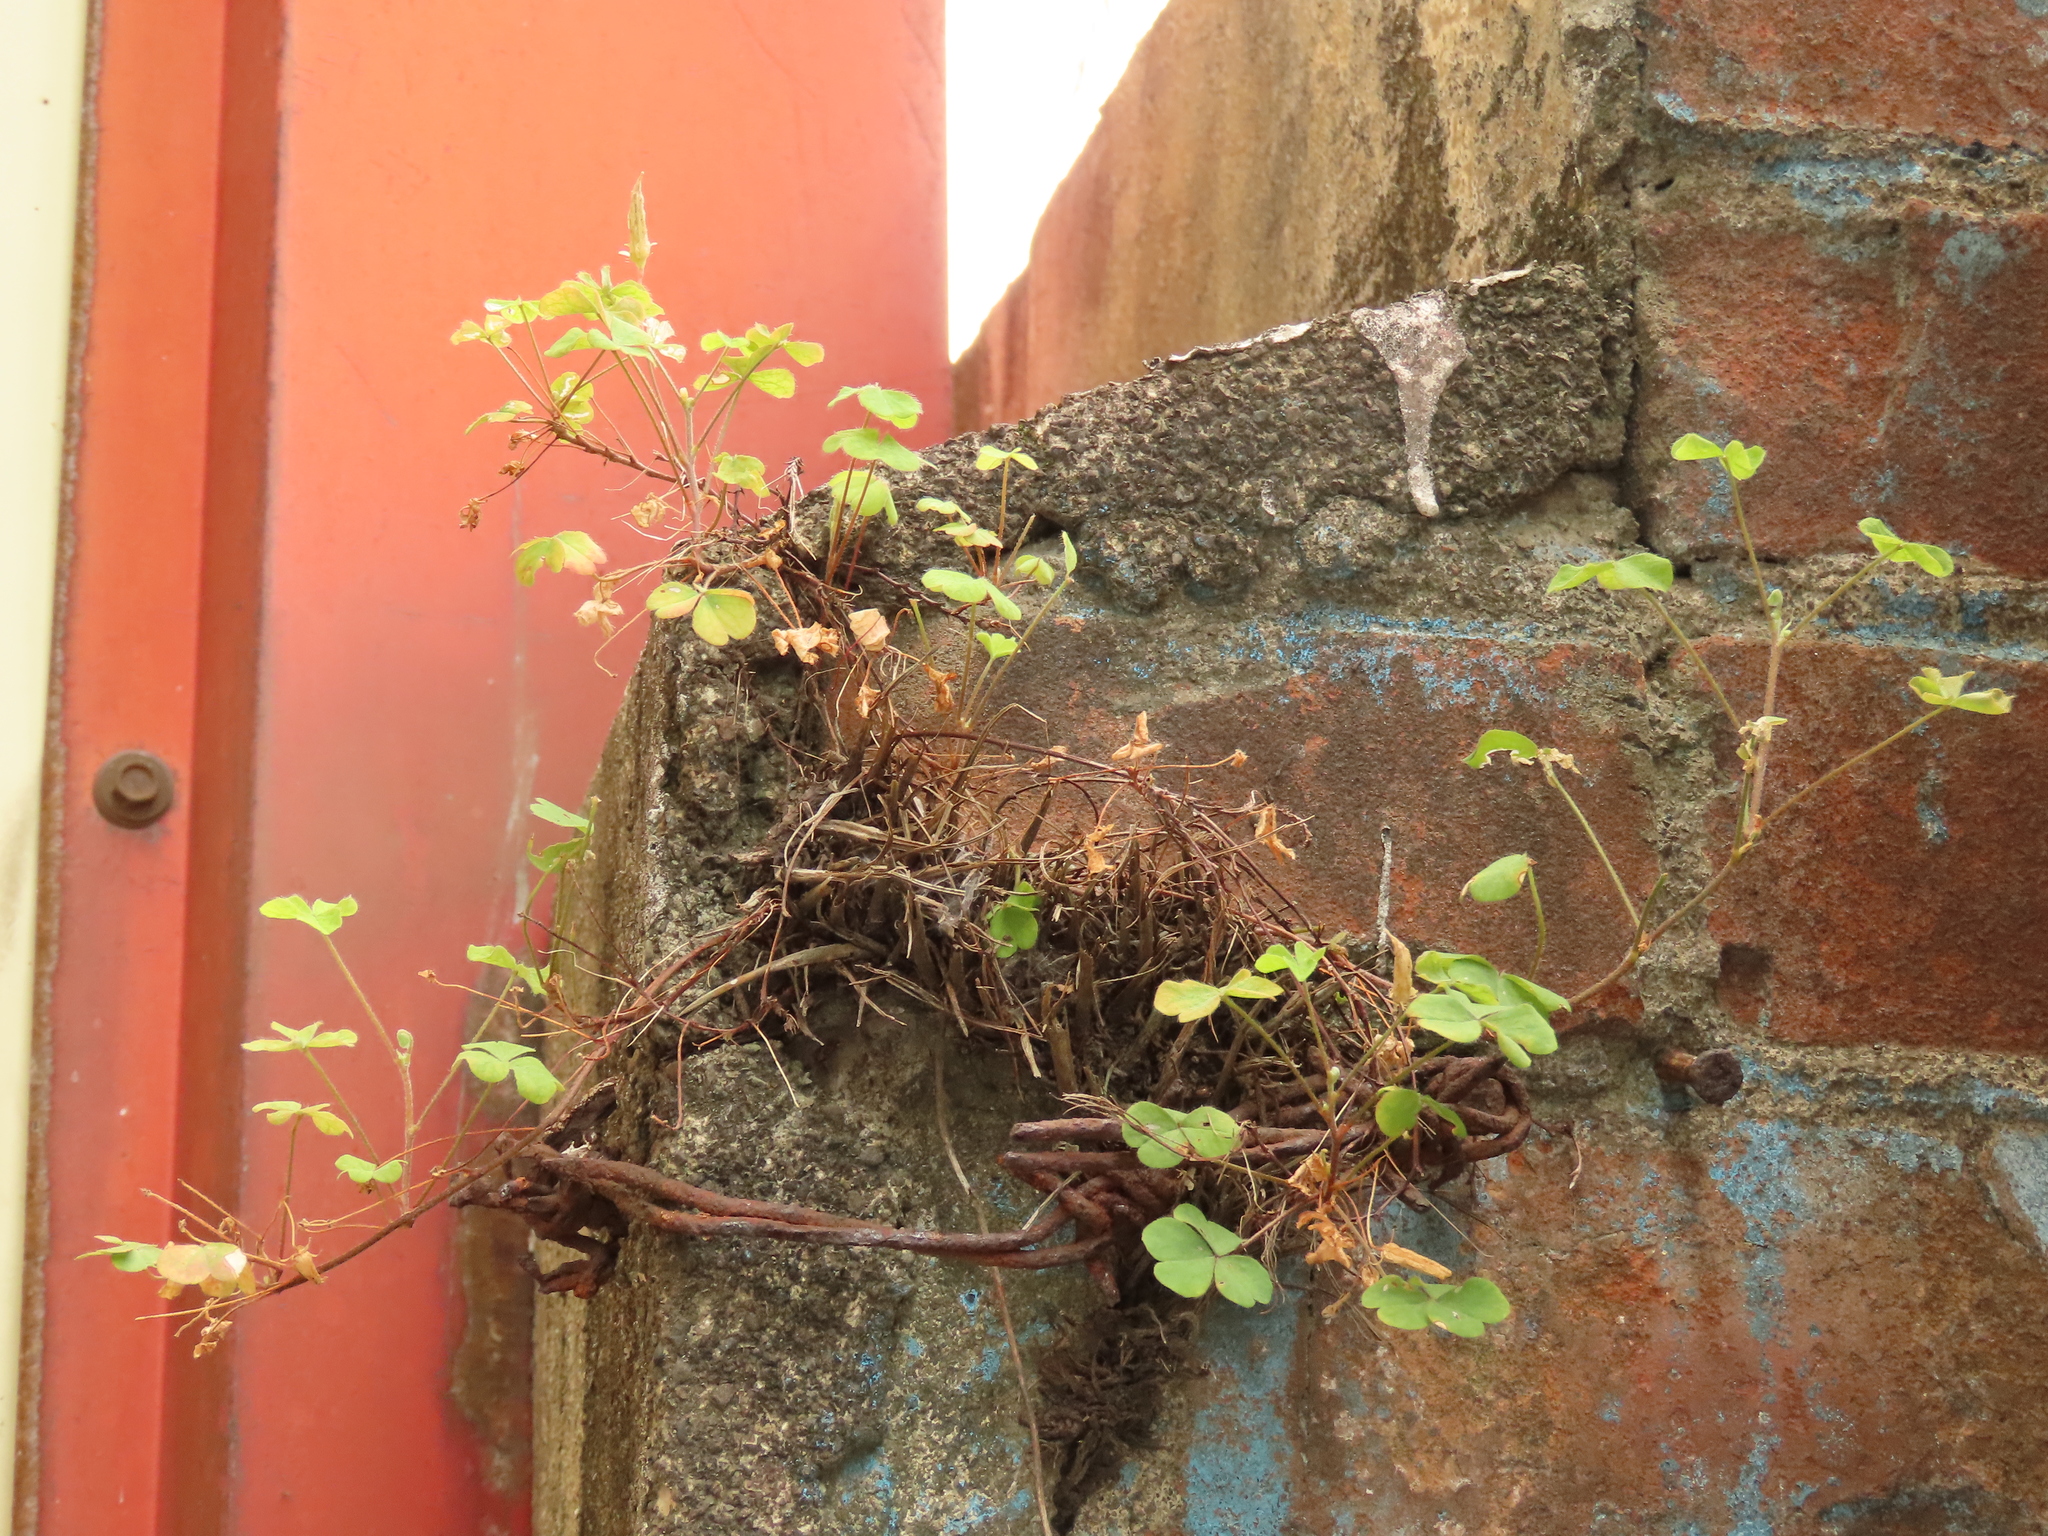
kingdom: Plantae
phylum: Tracheophyta
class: Magnoliopsida
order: Oxalidales
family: Oxalidaceae
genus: Oxalis
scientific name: Oxalis corniculata
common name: Procumbent yellow-sorrel
